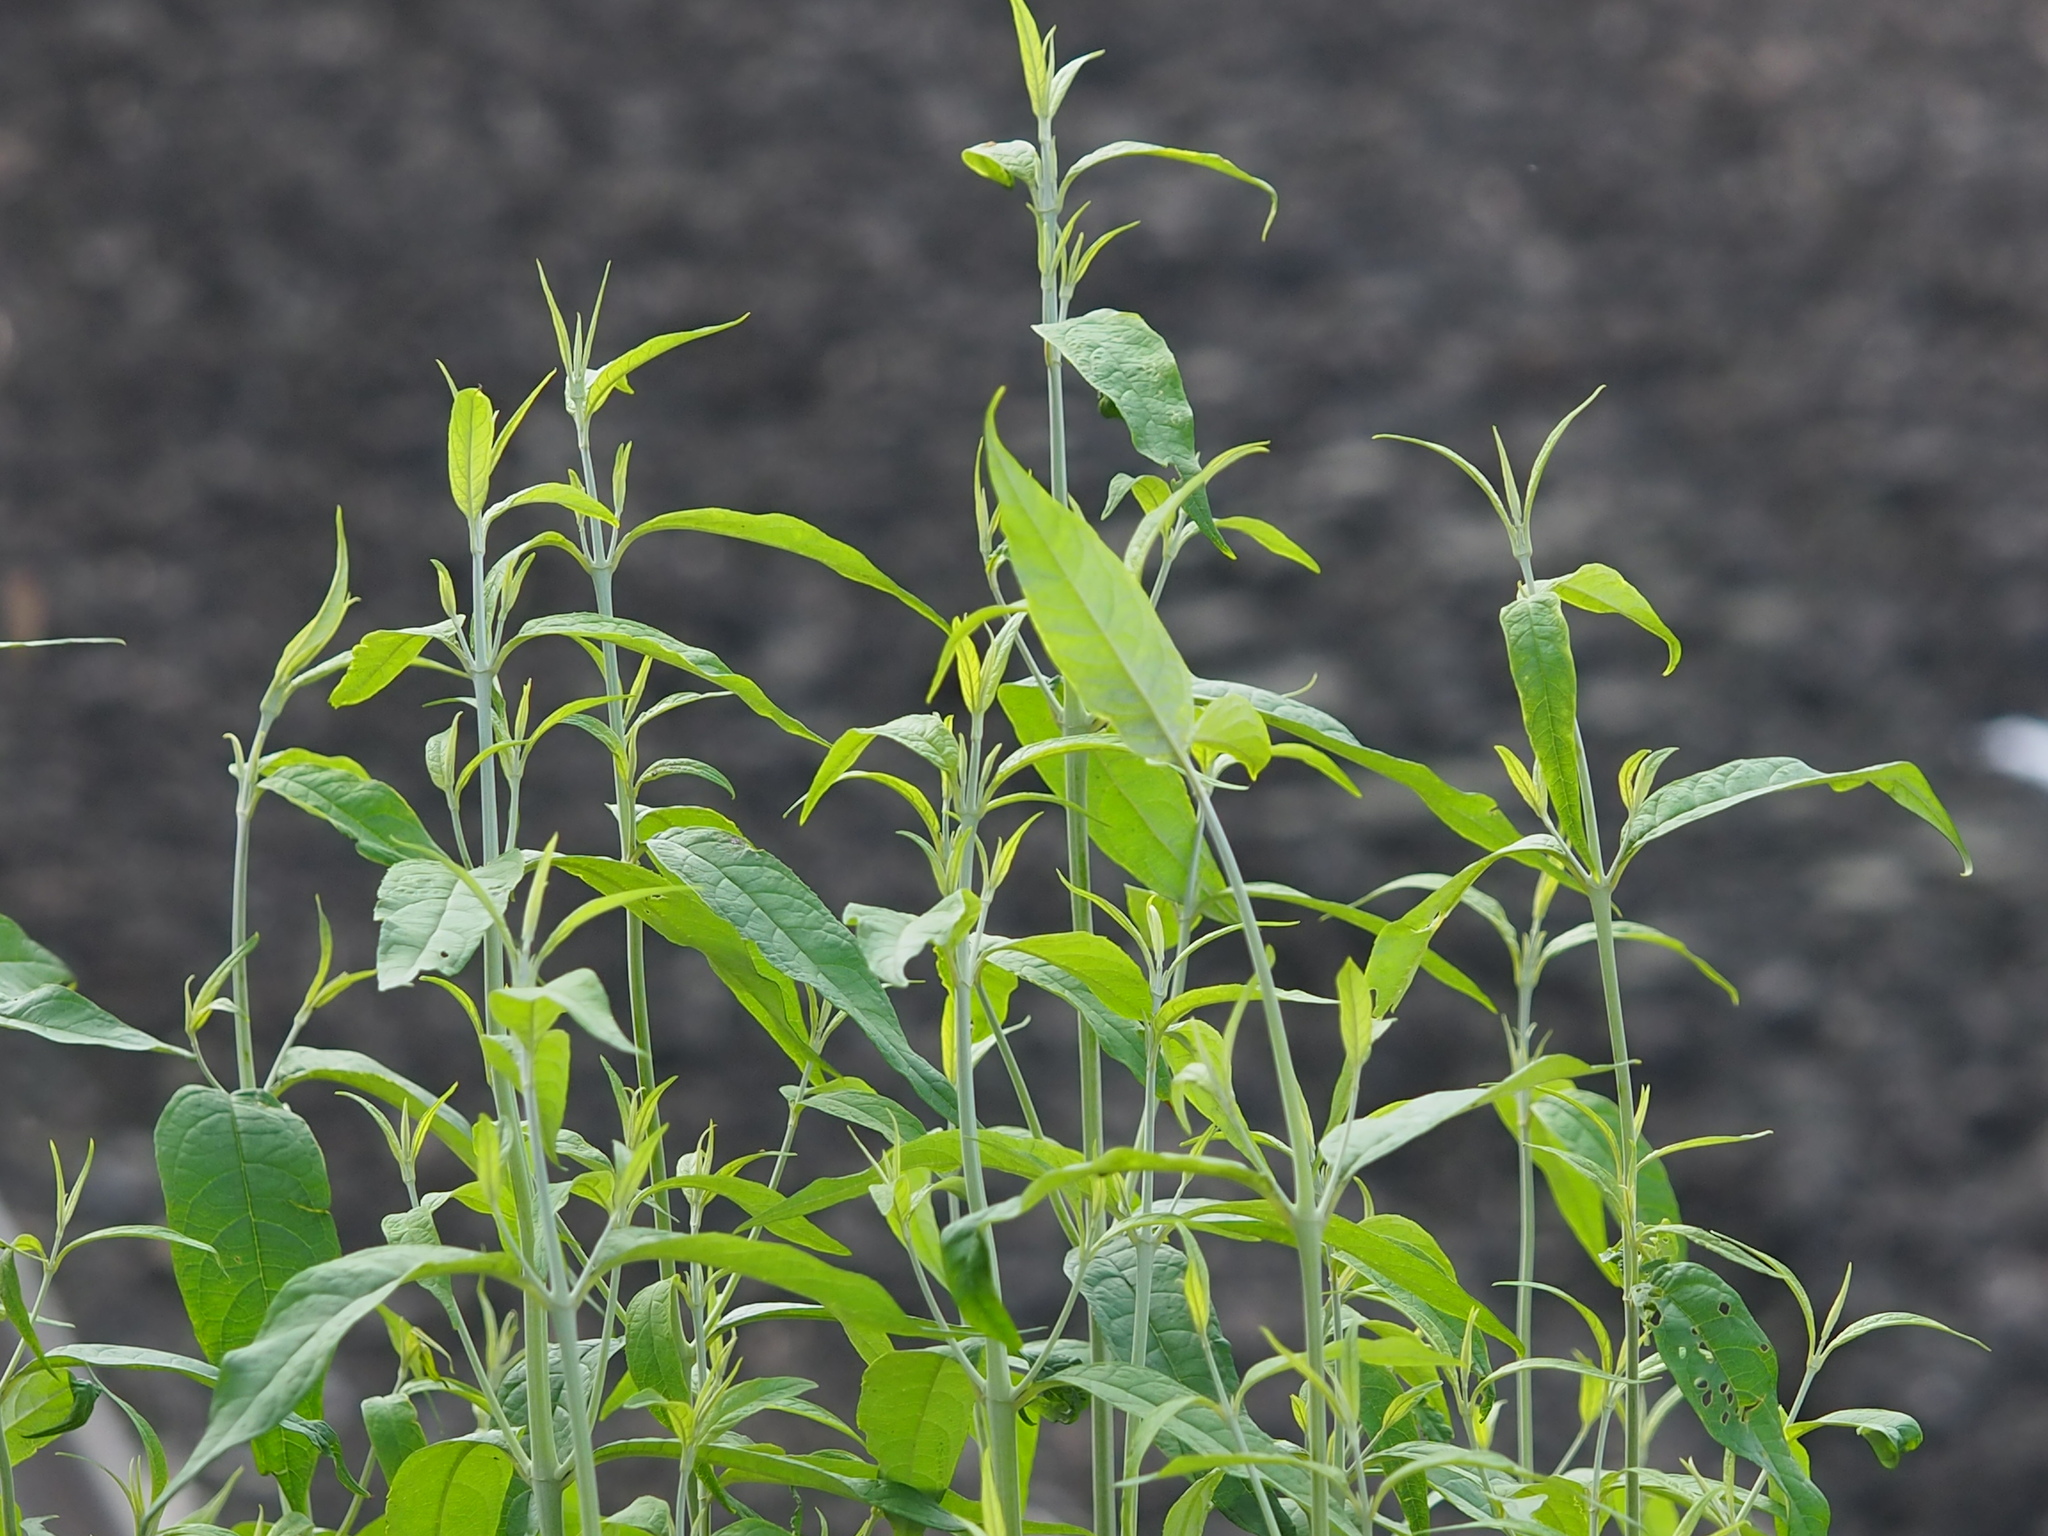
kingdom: Plantae
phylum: Tracheophyta
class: Magnoliopsida
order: Lamiales
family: Scrophulariaceae
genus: Buddleja
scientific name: Buddleja asiatica
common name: Dog tail
